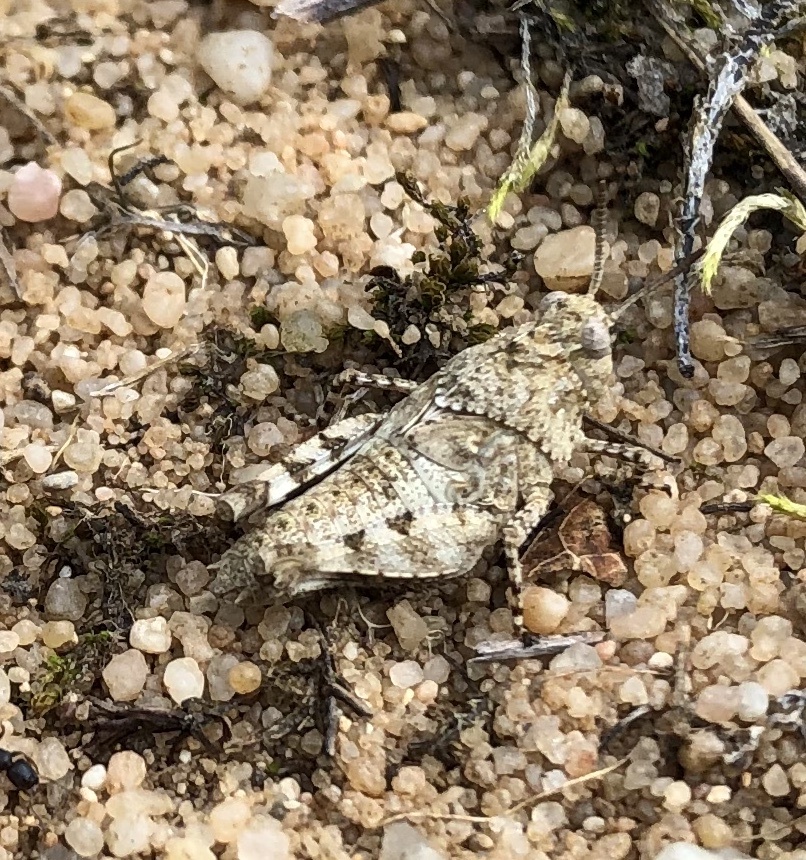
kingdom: Animalia
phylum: Arthropoda
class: Insecta
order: Orthoptera
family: Acrididae
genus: Oedipoda
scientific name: Oedipoda caerulescens
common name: Blue-winged grasshopper
